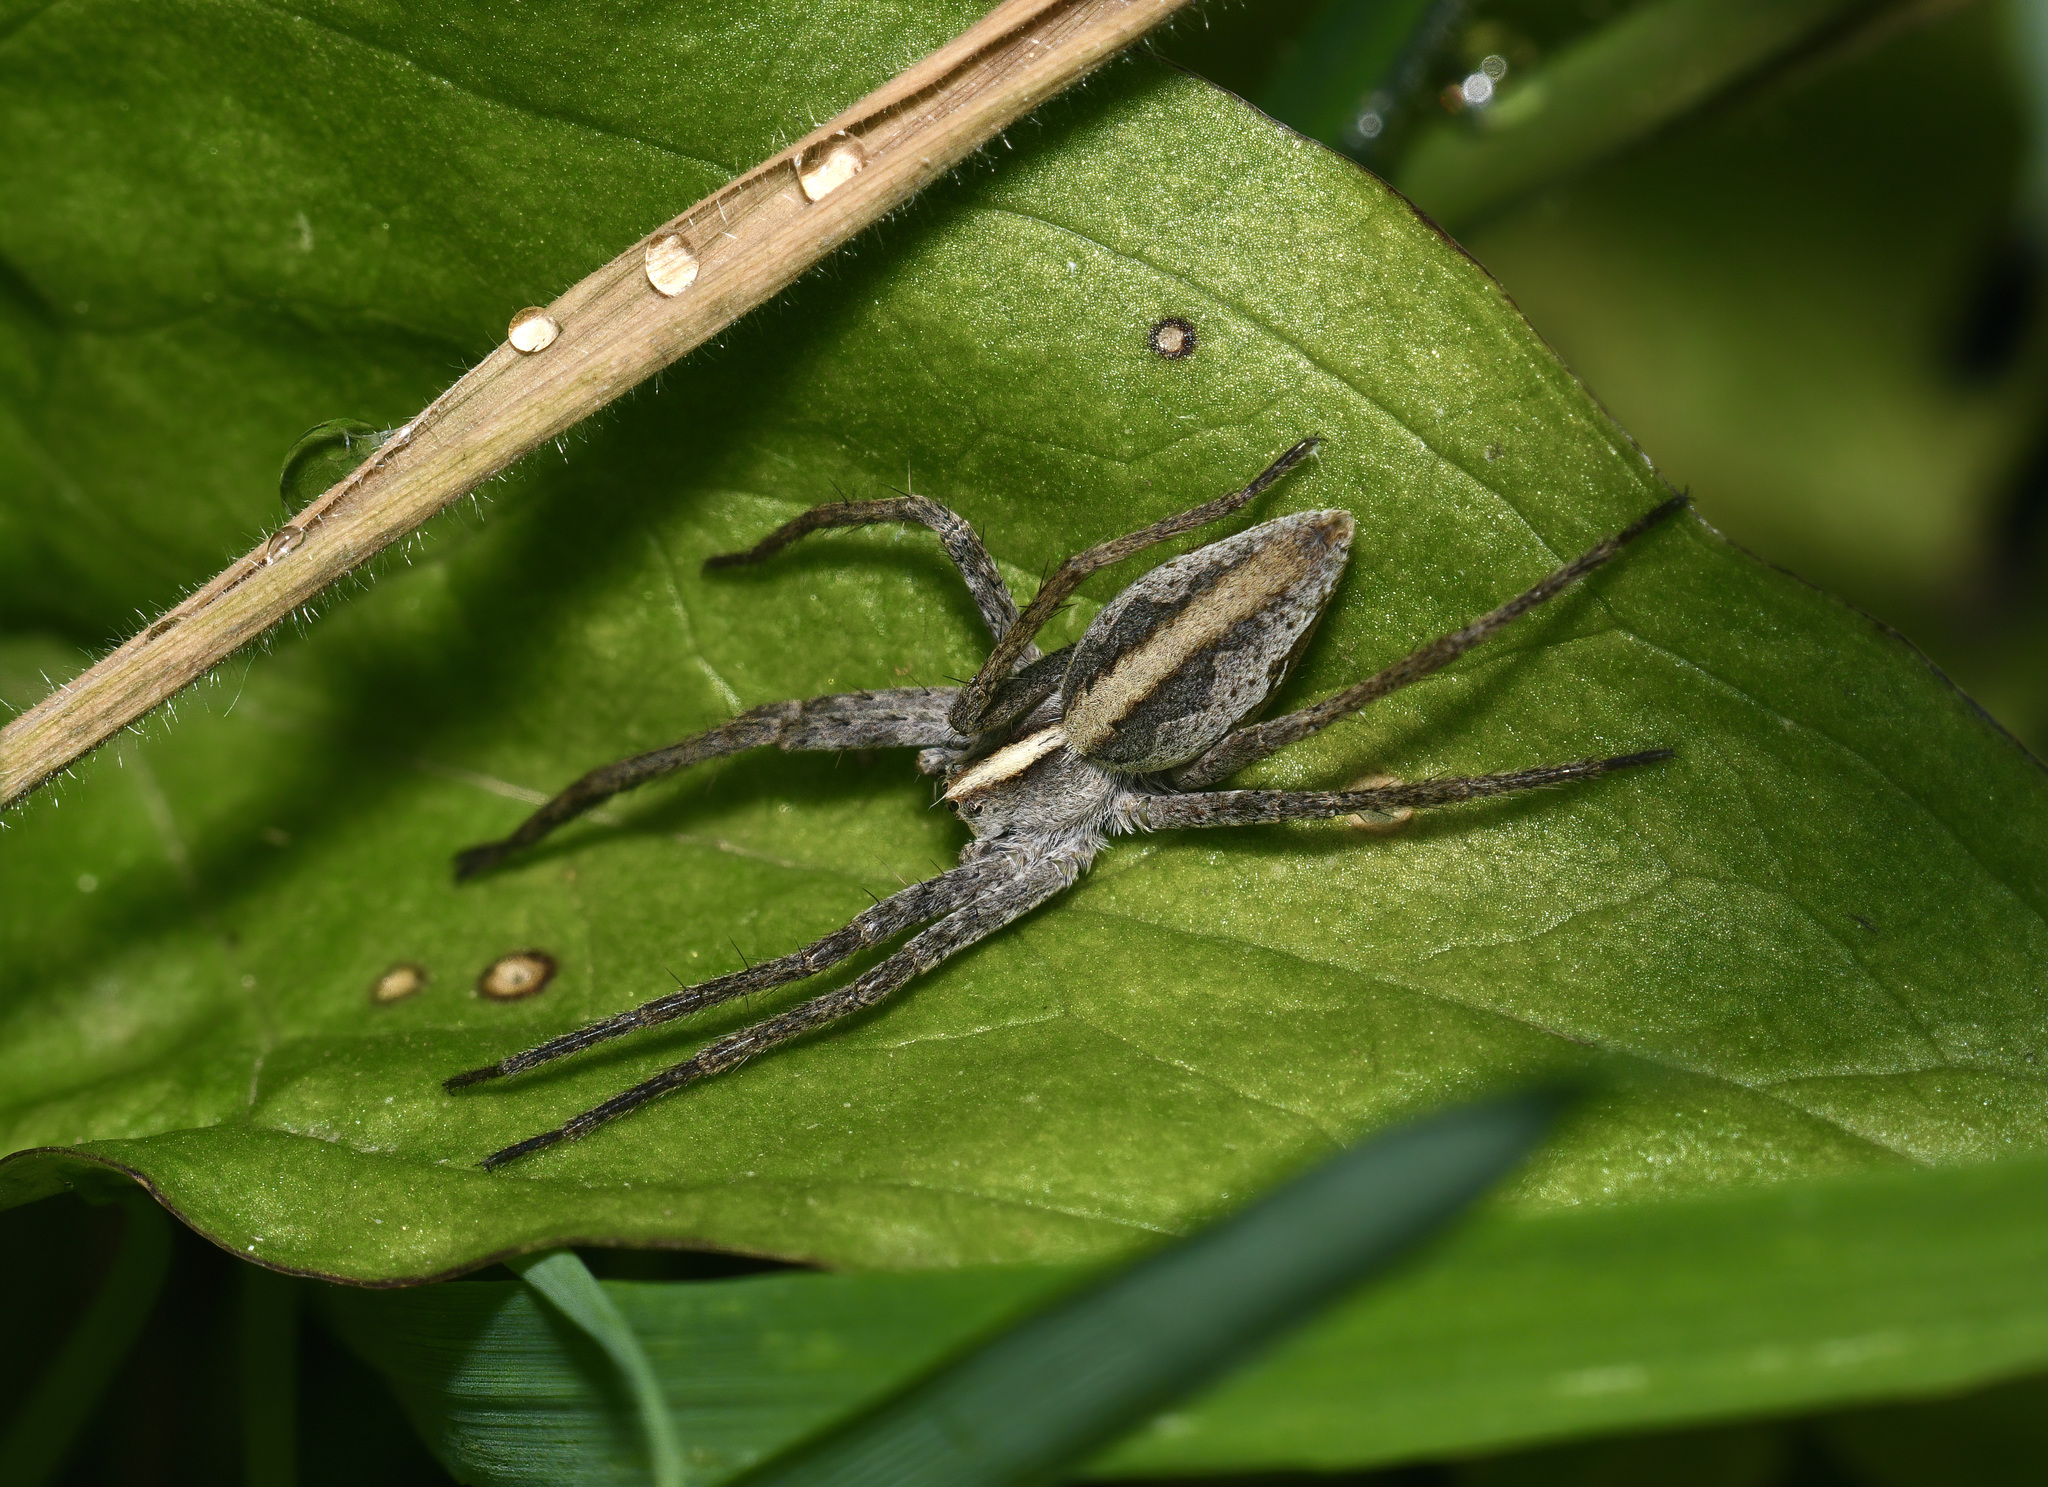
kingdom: Animalia
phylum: Arthropoda
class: Arachnida
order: Araneae
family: Pisauridae
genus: Pisaura
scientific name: Pisaura mirabilis
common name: Tent spider
